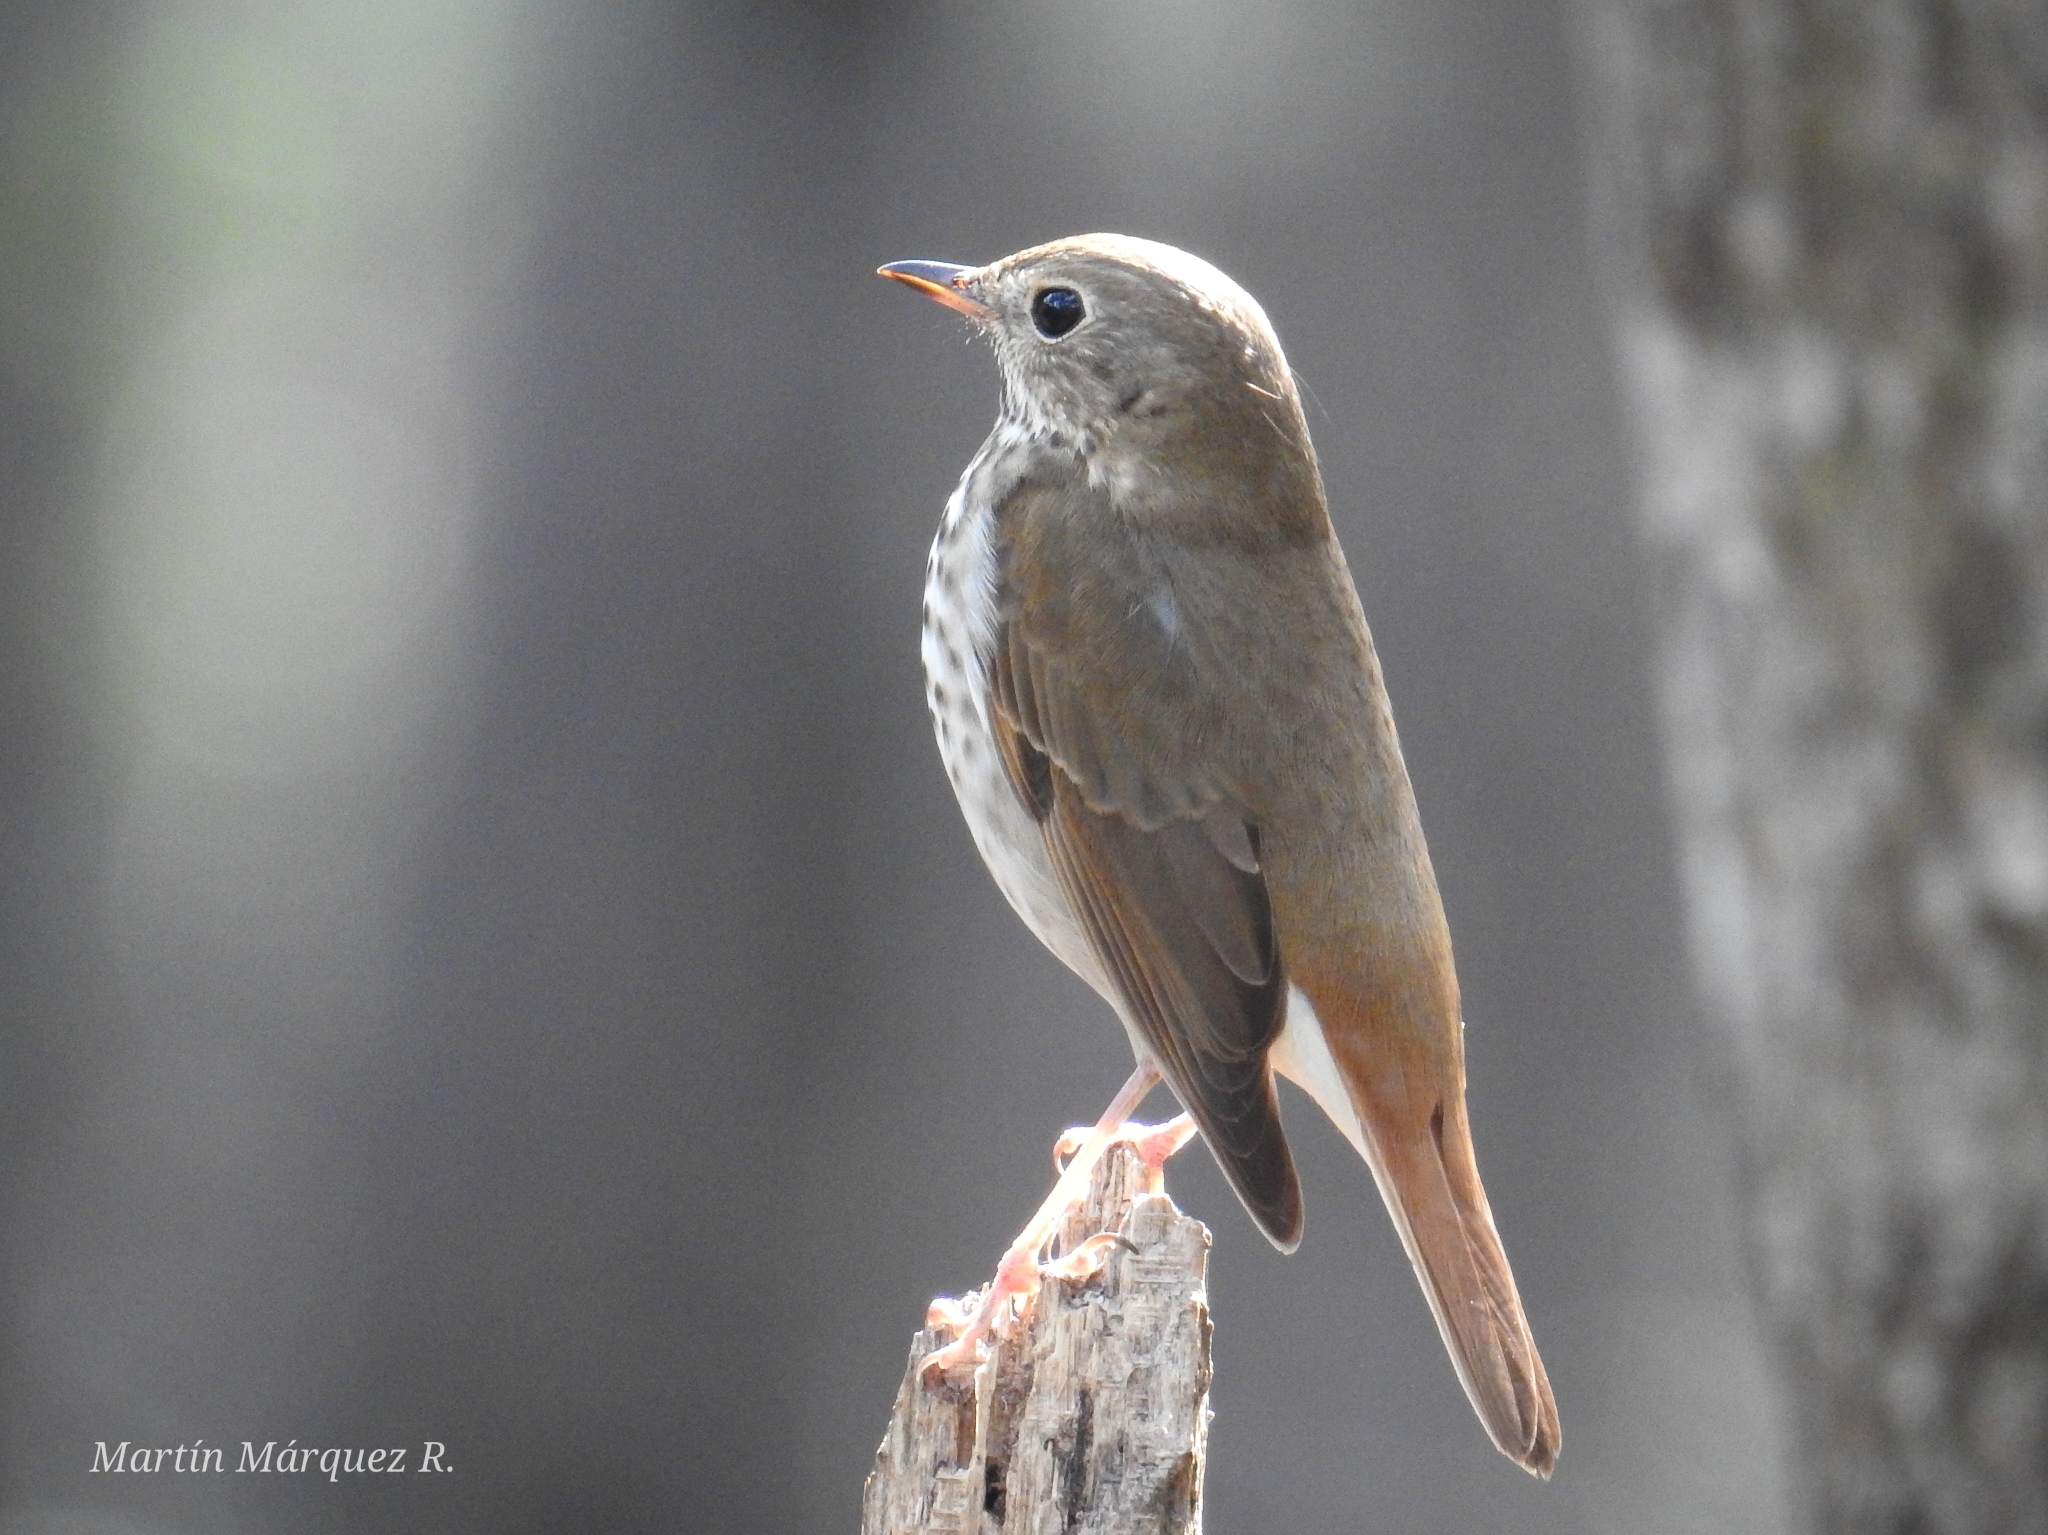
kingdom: Animalia
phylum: Chordata
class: Aves
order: Passeriformes
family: Turdidae
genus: Catharus
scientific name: Catharus guttatus
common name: Hermit thrush
